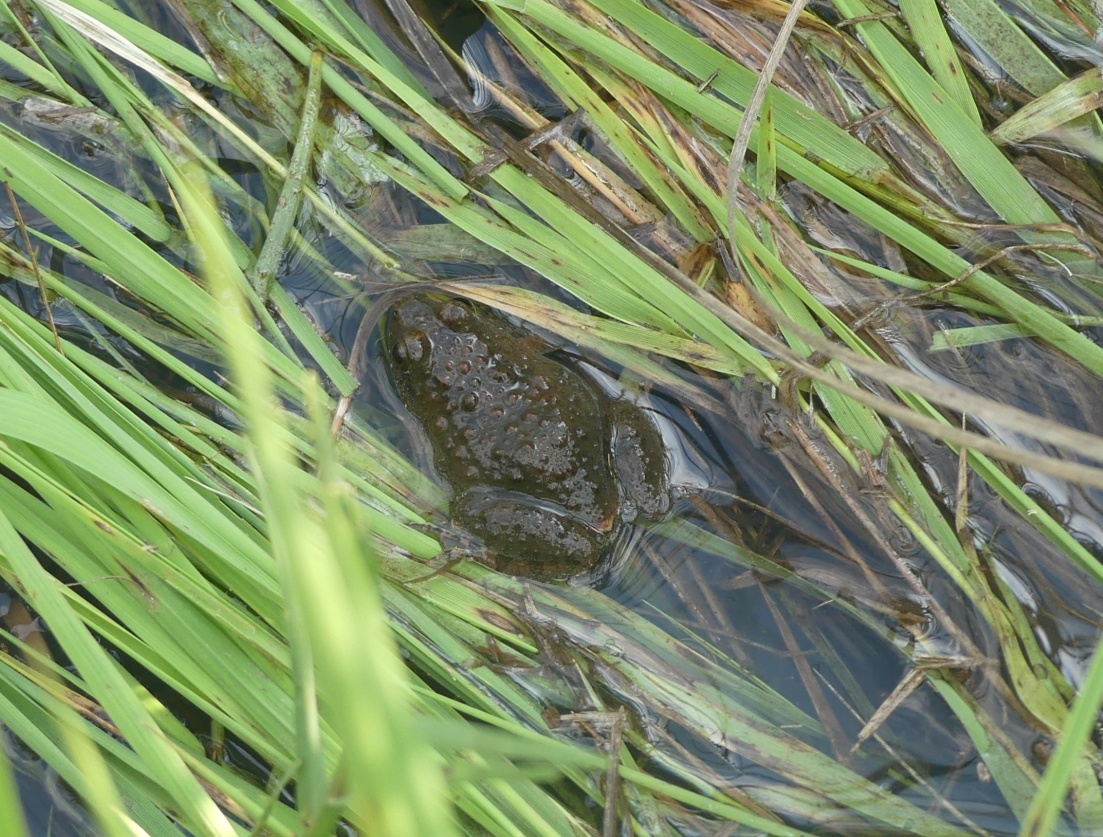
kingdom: Animalia
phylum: Chordata
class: Amphibia
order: Anura
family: Phrynobatrachidae
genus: Phrynobatrachus
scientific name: Phrynobatrachus natalensis
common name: Snoring puddle frog
